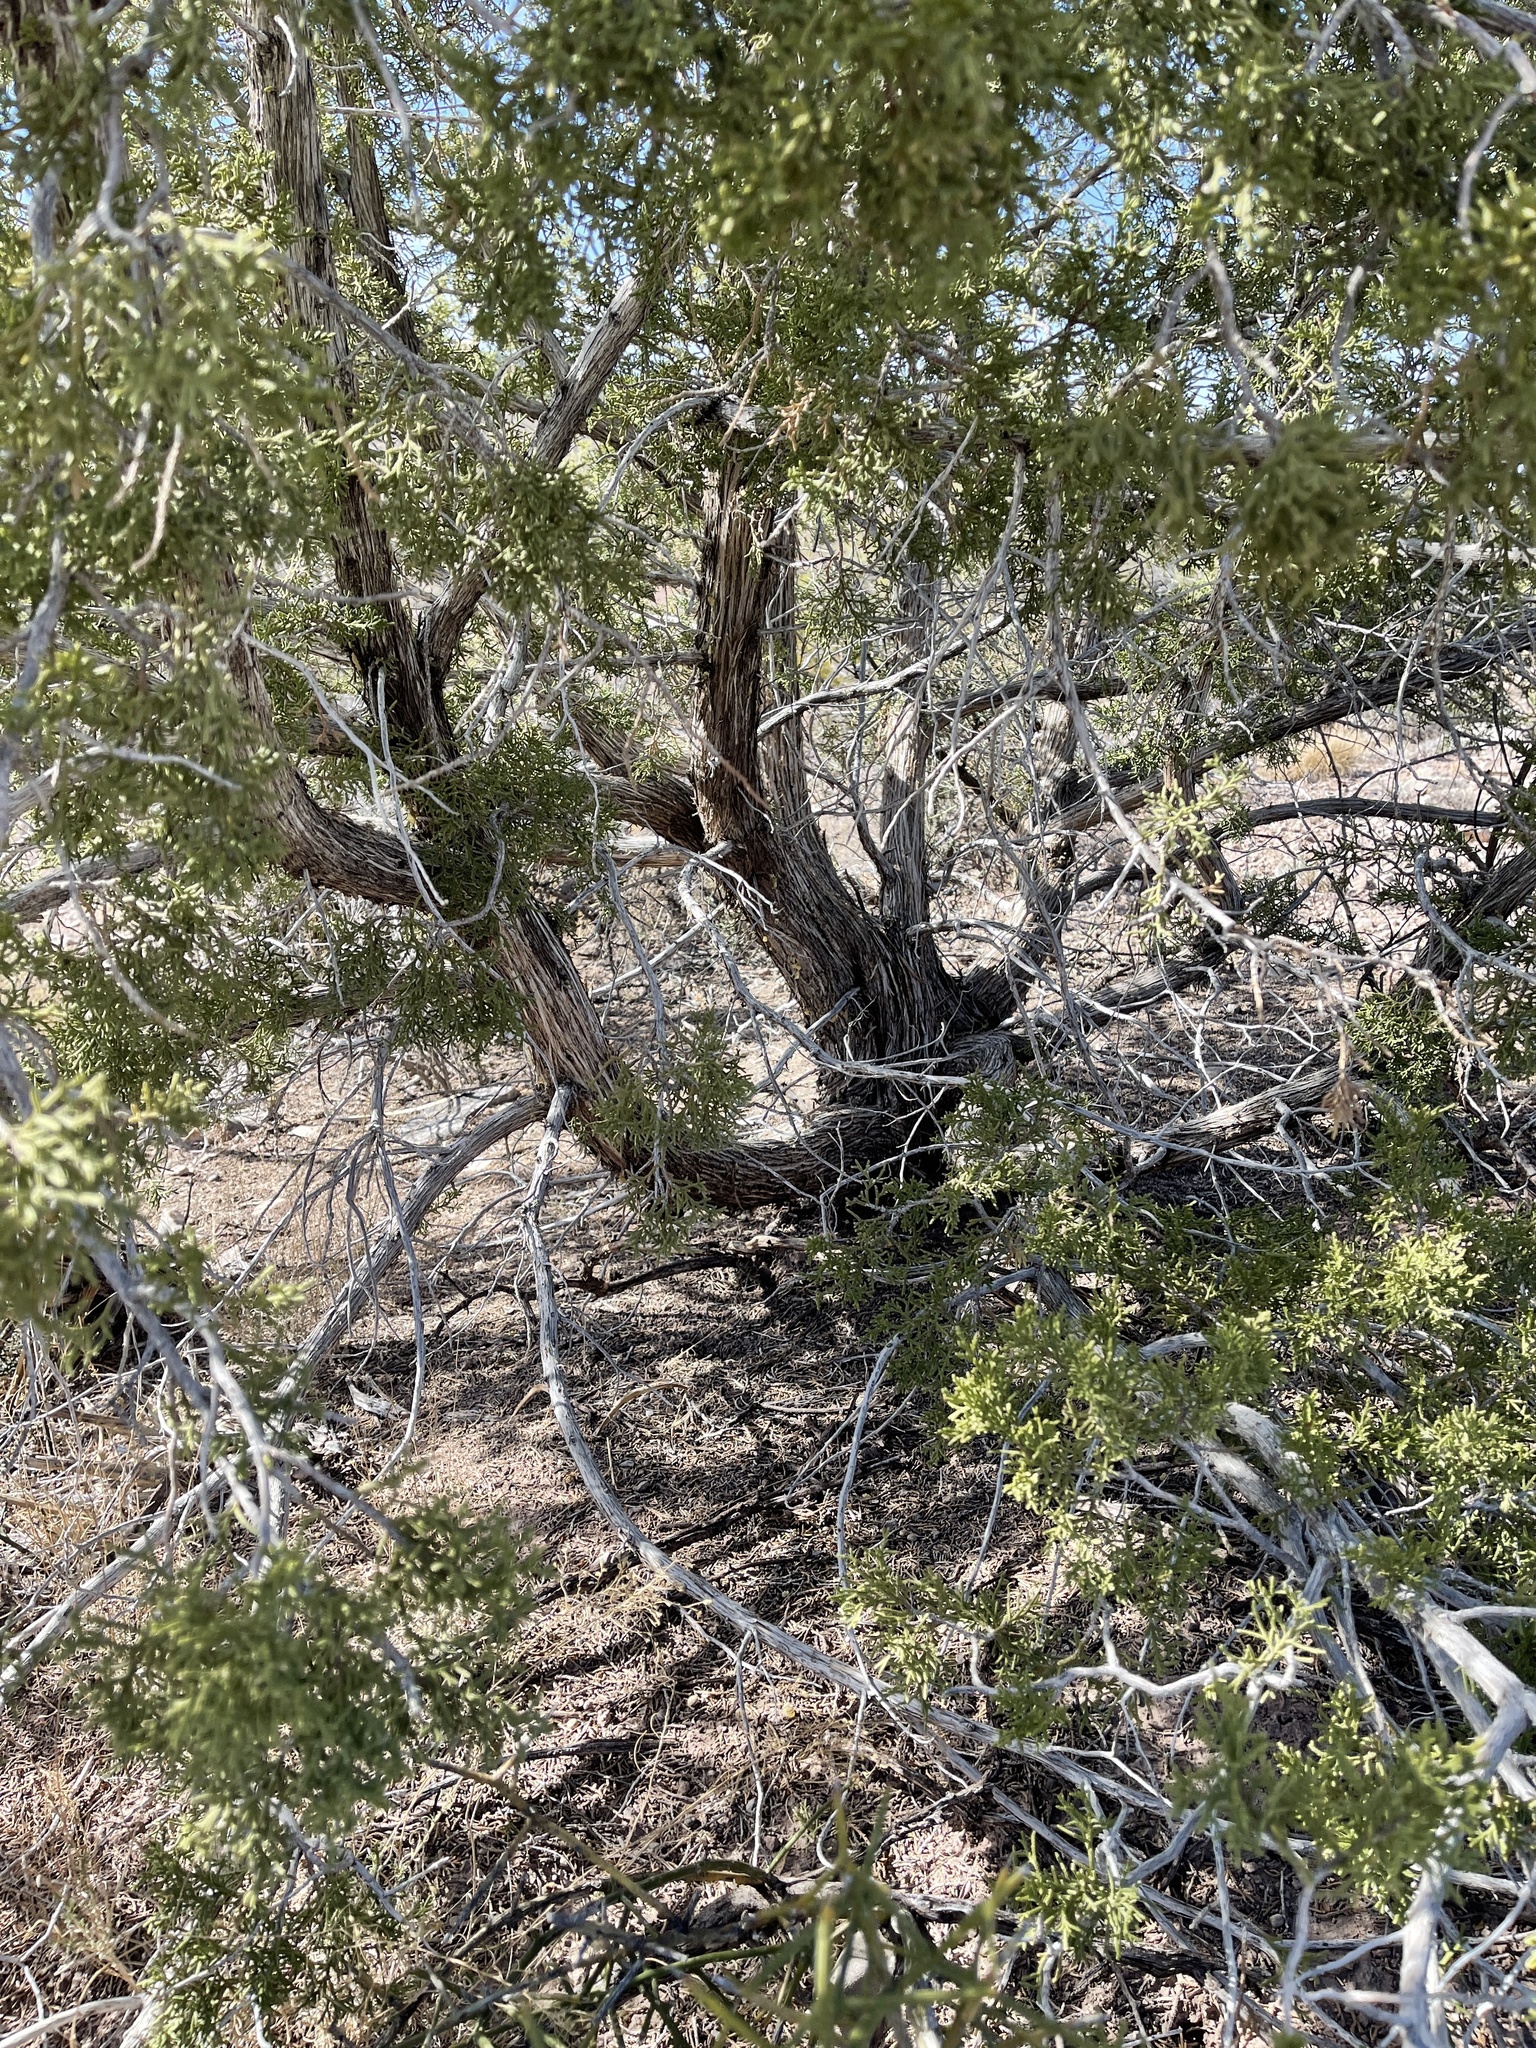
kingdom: Plantae
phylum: Tracheophyta
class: Pinopsida
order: Pinales
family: Cupressaceae
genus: Juniperus
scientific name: Juniperus monosperma
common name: One-seed juniper
